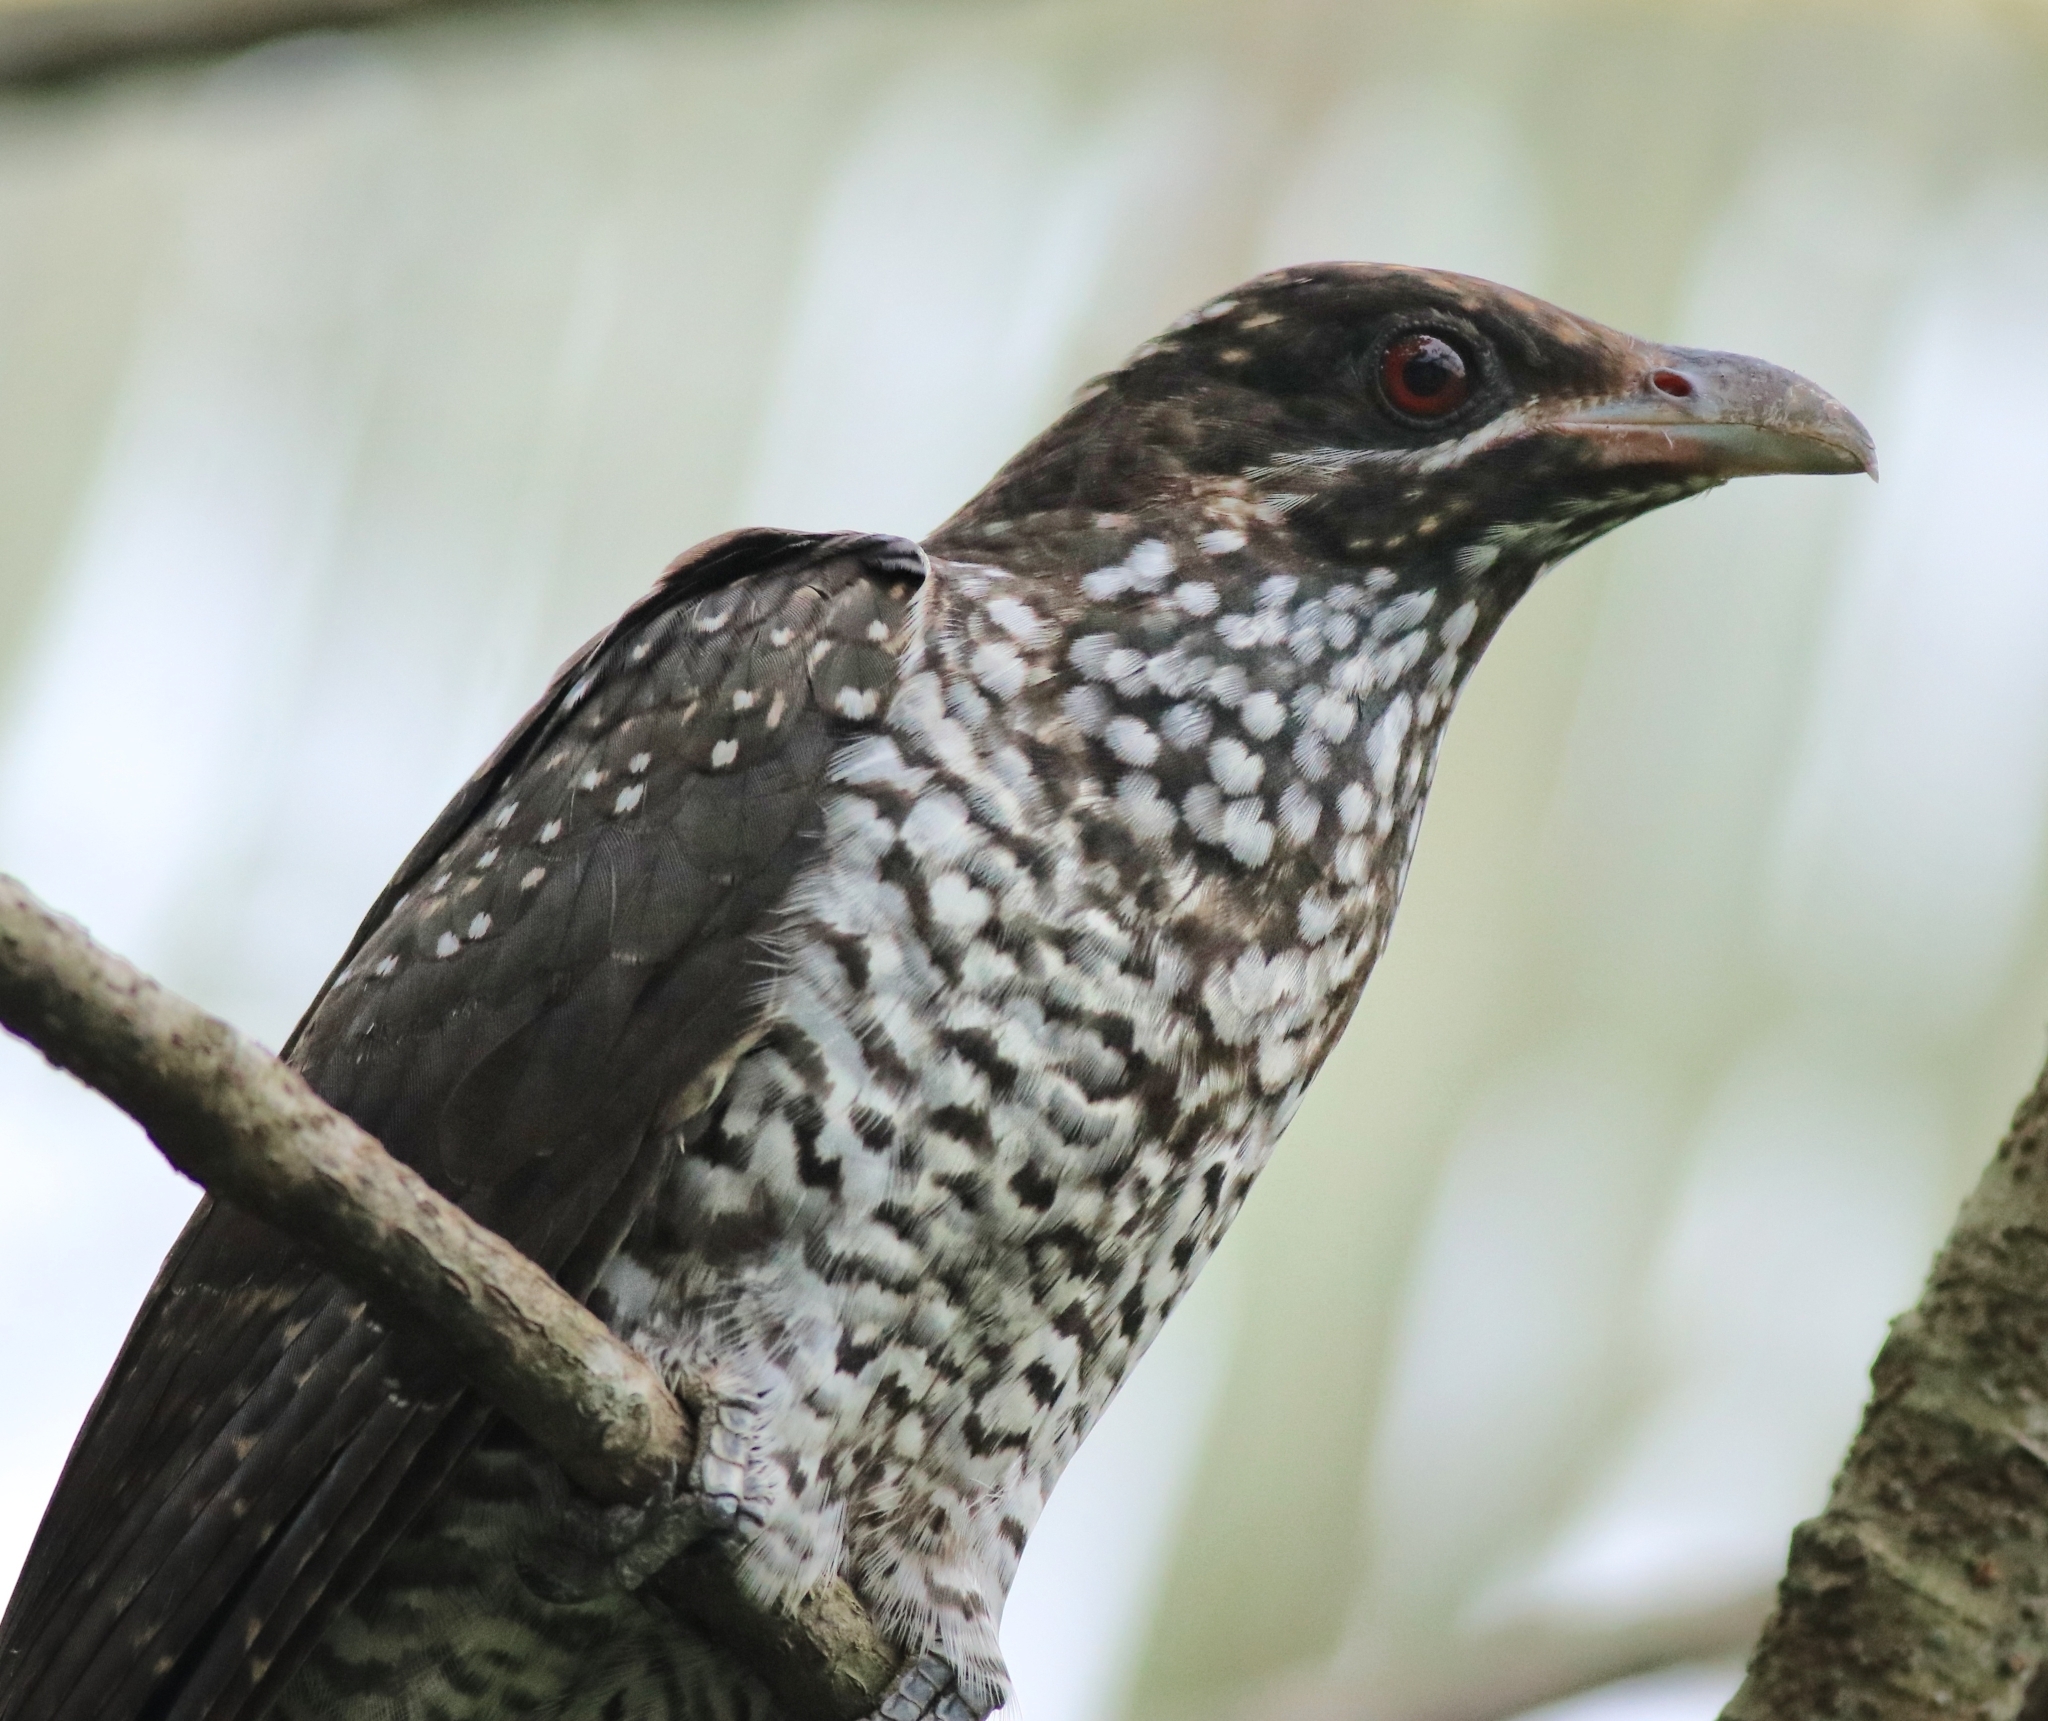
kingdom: Animalia
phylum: Chordata
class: Aves
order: Cuculiformes
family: Cuculidae
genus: Eudynamys
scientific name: Eudynamys scolopaceus
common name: Asian koel
